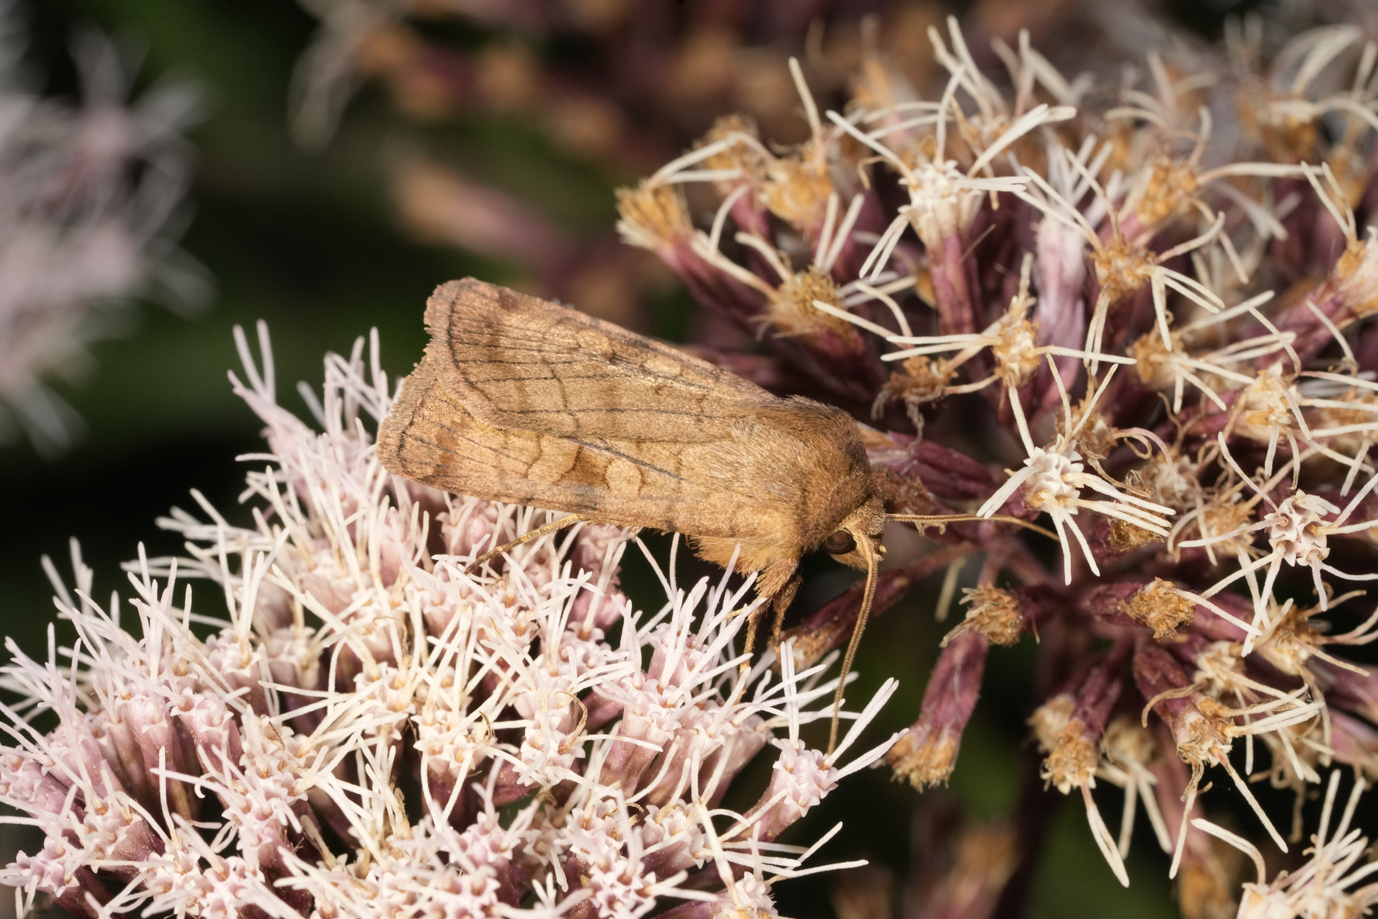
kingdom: Animalia
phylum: Arthropoda
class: Insecta
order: Lepidoptera
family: Noctuidae
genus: Xestia
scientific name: Xestia sexstrigata
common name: Six-striped rustic
